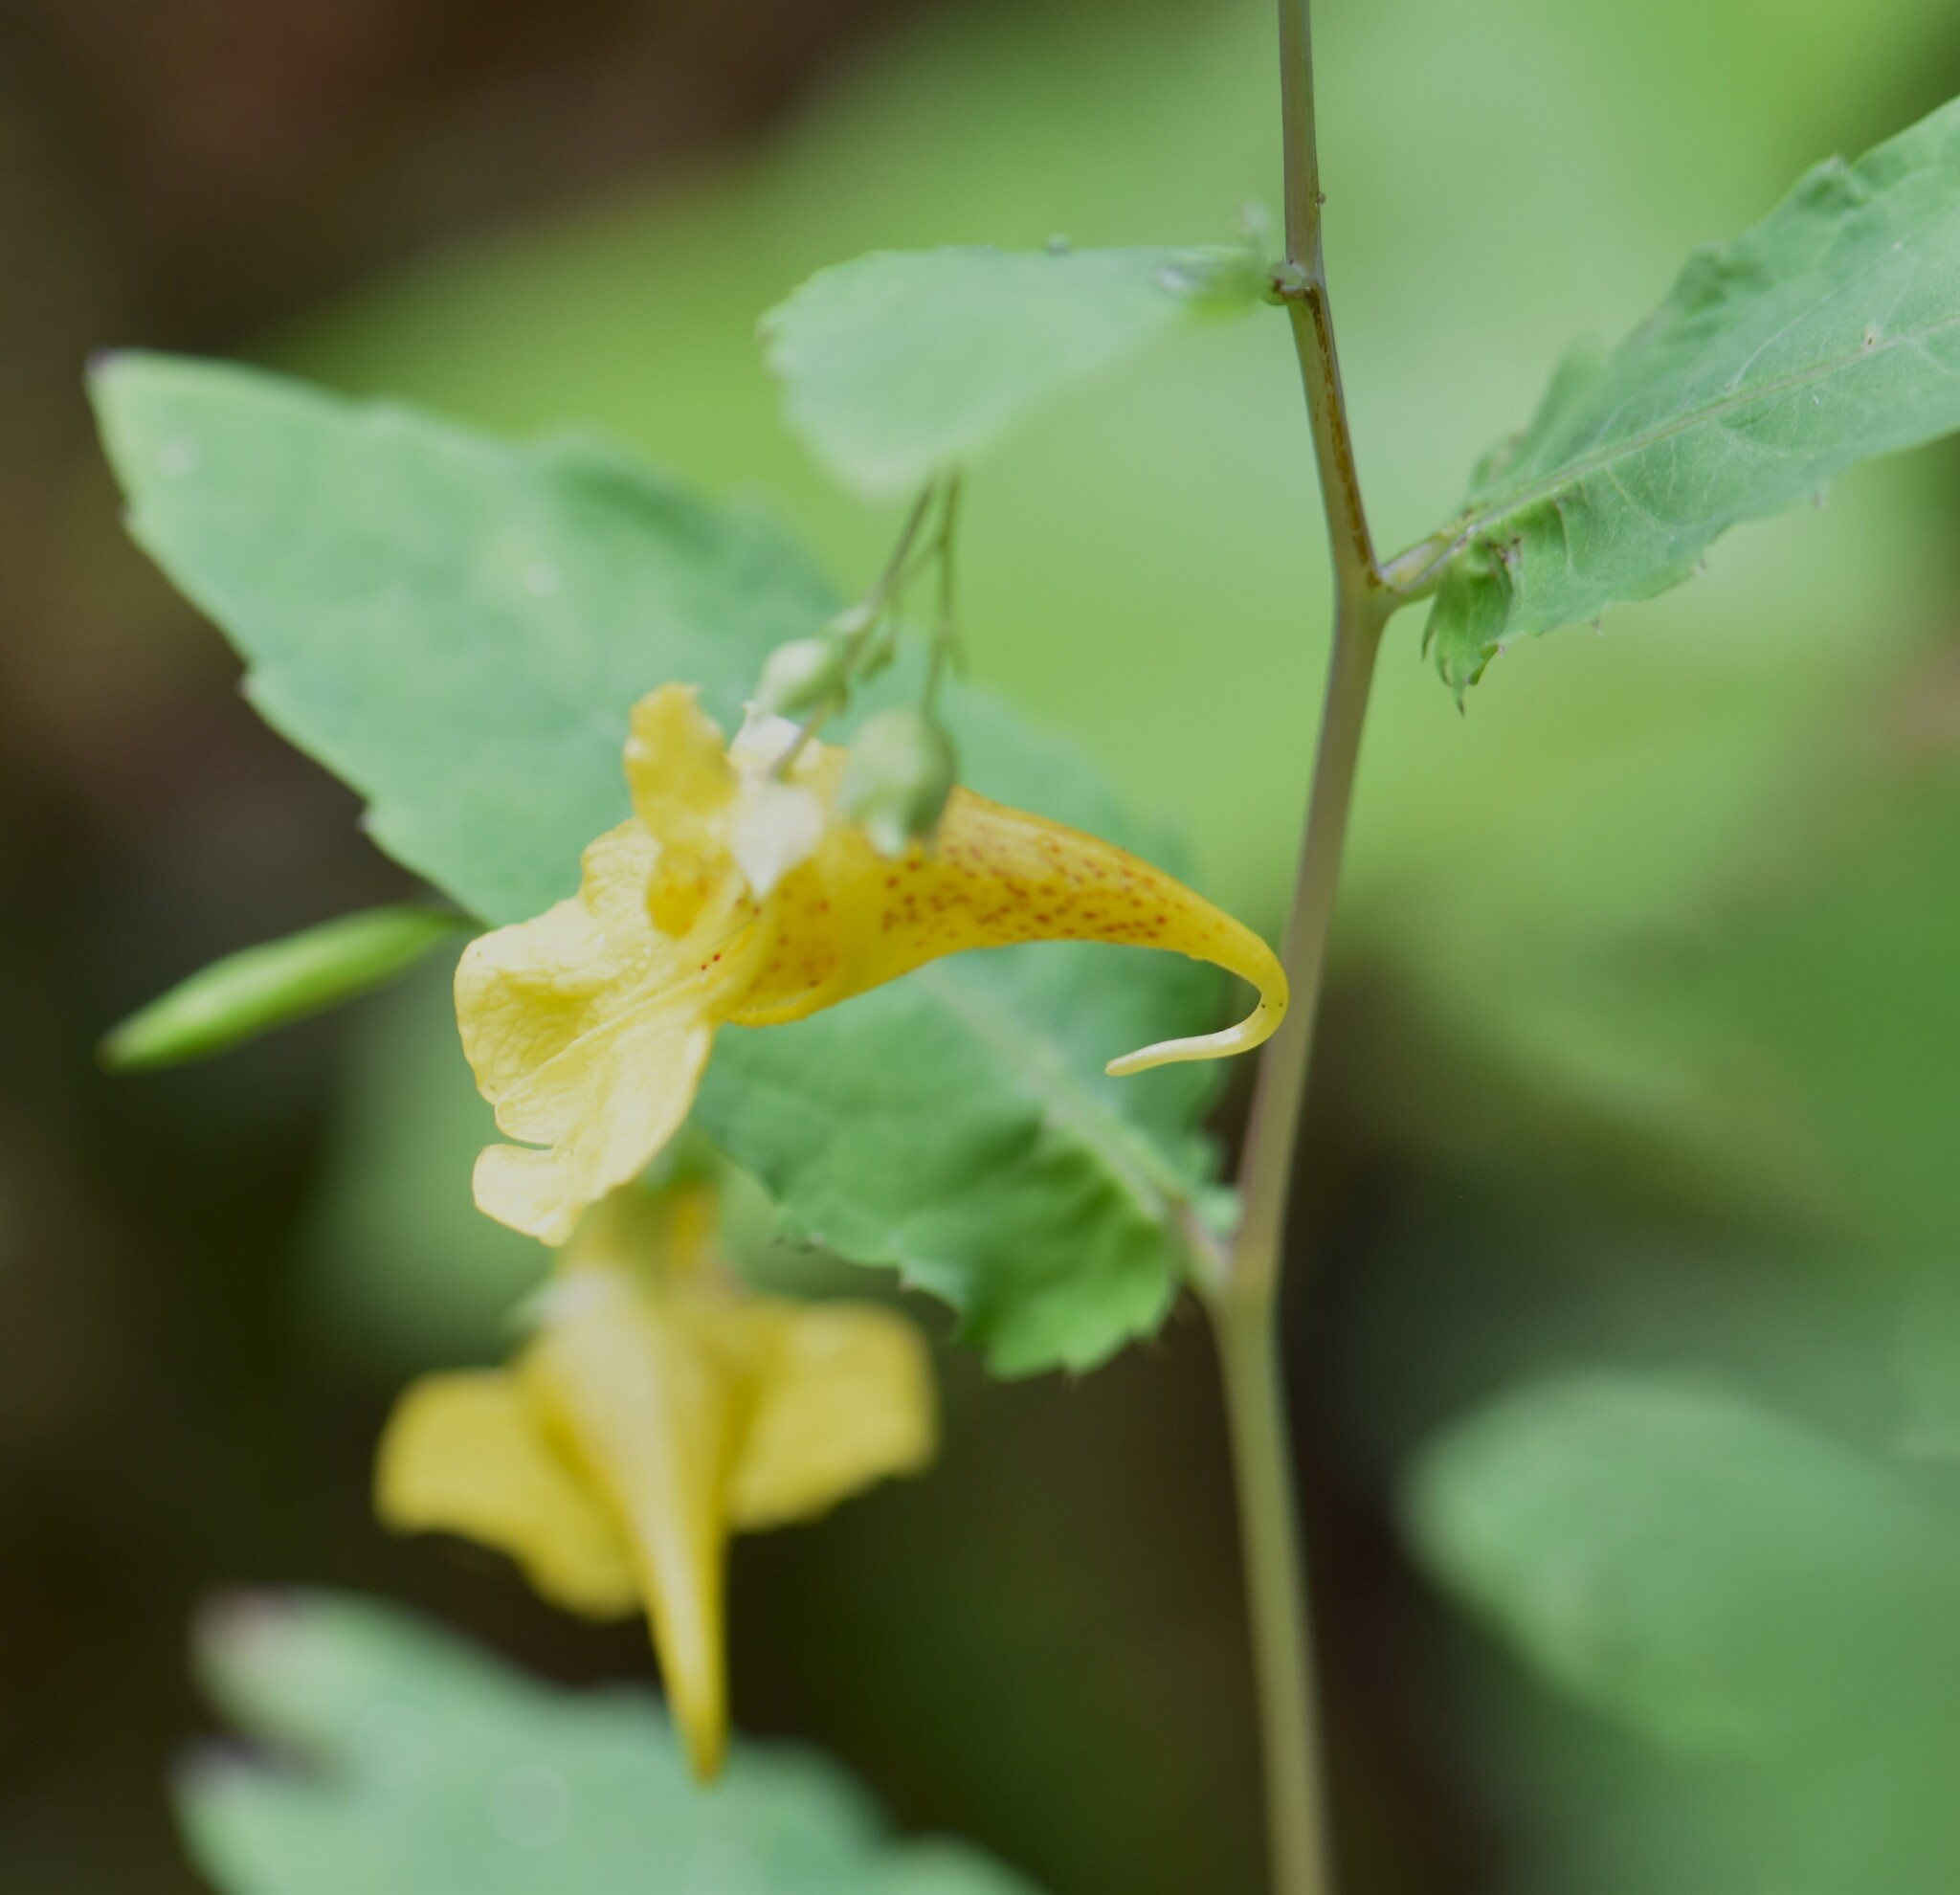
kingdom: Plantae
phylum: Tracheophyta
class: Magnoliopsida
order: Ericales
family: Balsaminaceae
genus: Impatiens
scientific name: Impatiens noli-tangere
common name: Touch-me-not balsam
